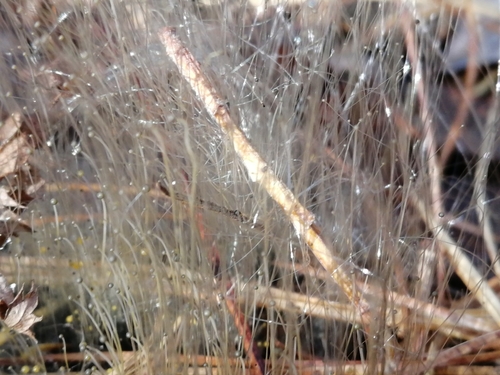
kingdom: Fungi
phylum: Zygomycota
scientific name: Zygomycota
